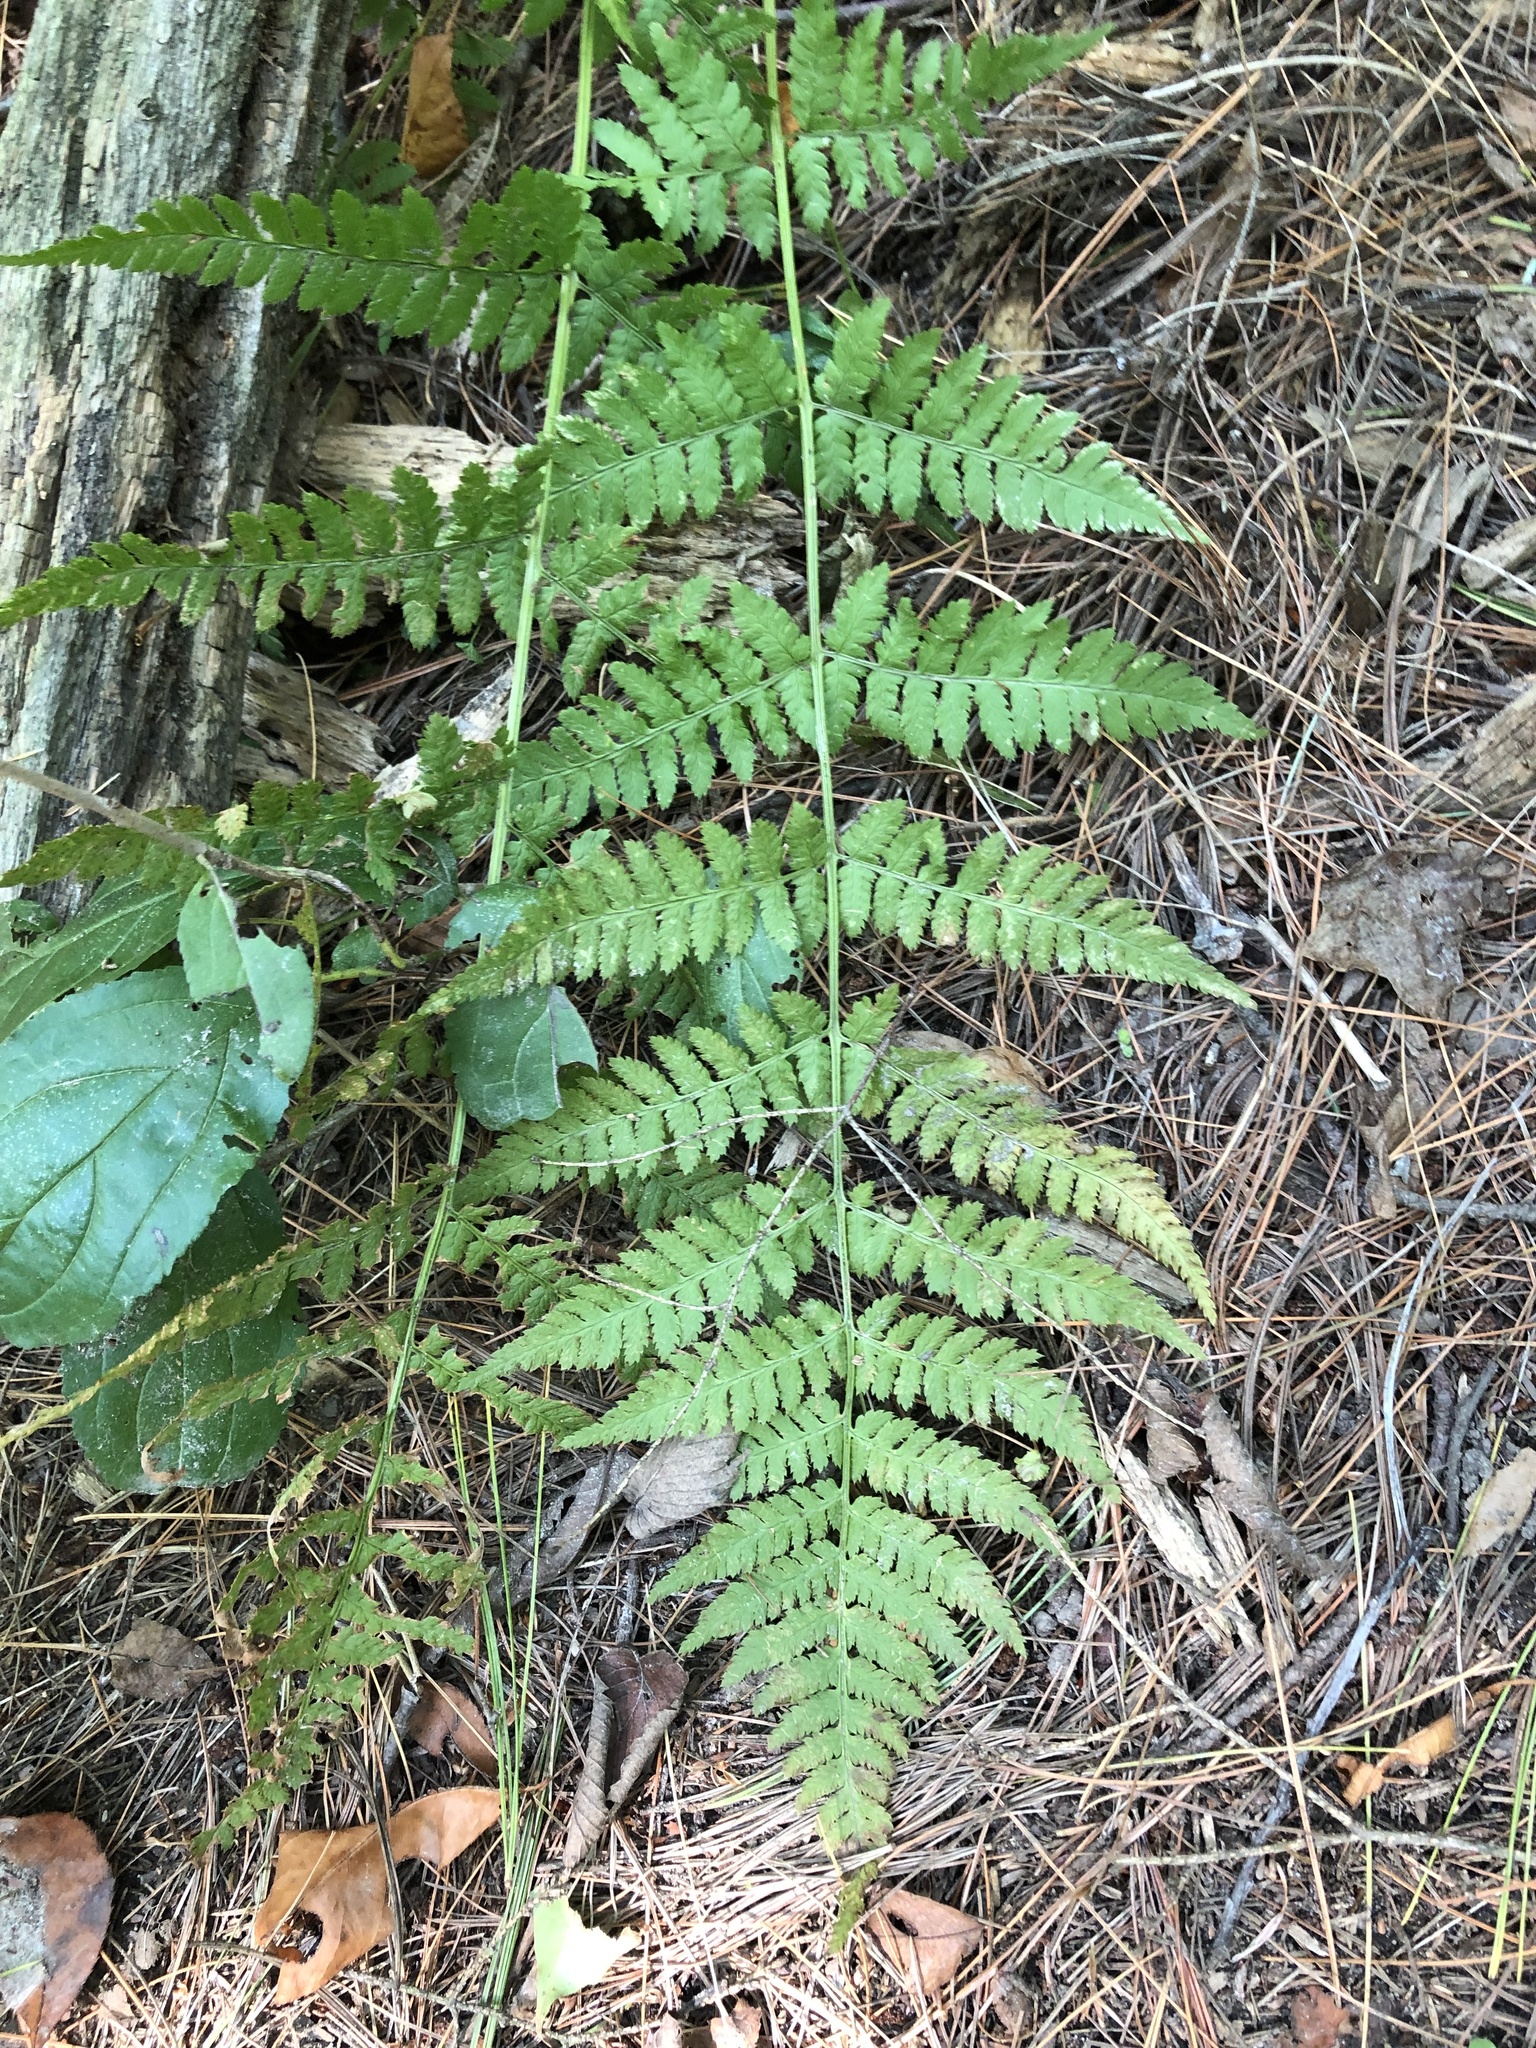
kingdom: Plantae
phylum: Tracheophyta
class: Polypodiopsida
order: Polypodiales
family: Dryopteridaceae
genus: Dryopteris
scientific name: Dryopteris intermedia
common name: Evergreen wood fern
